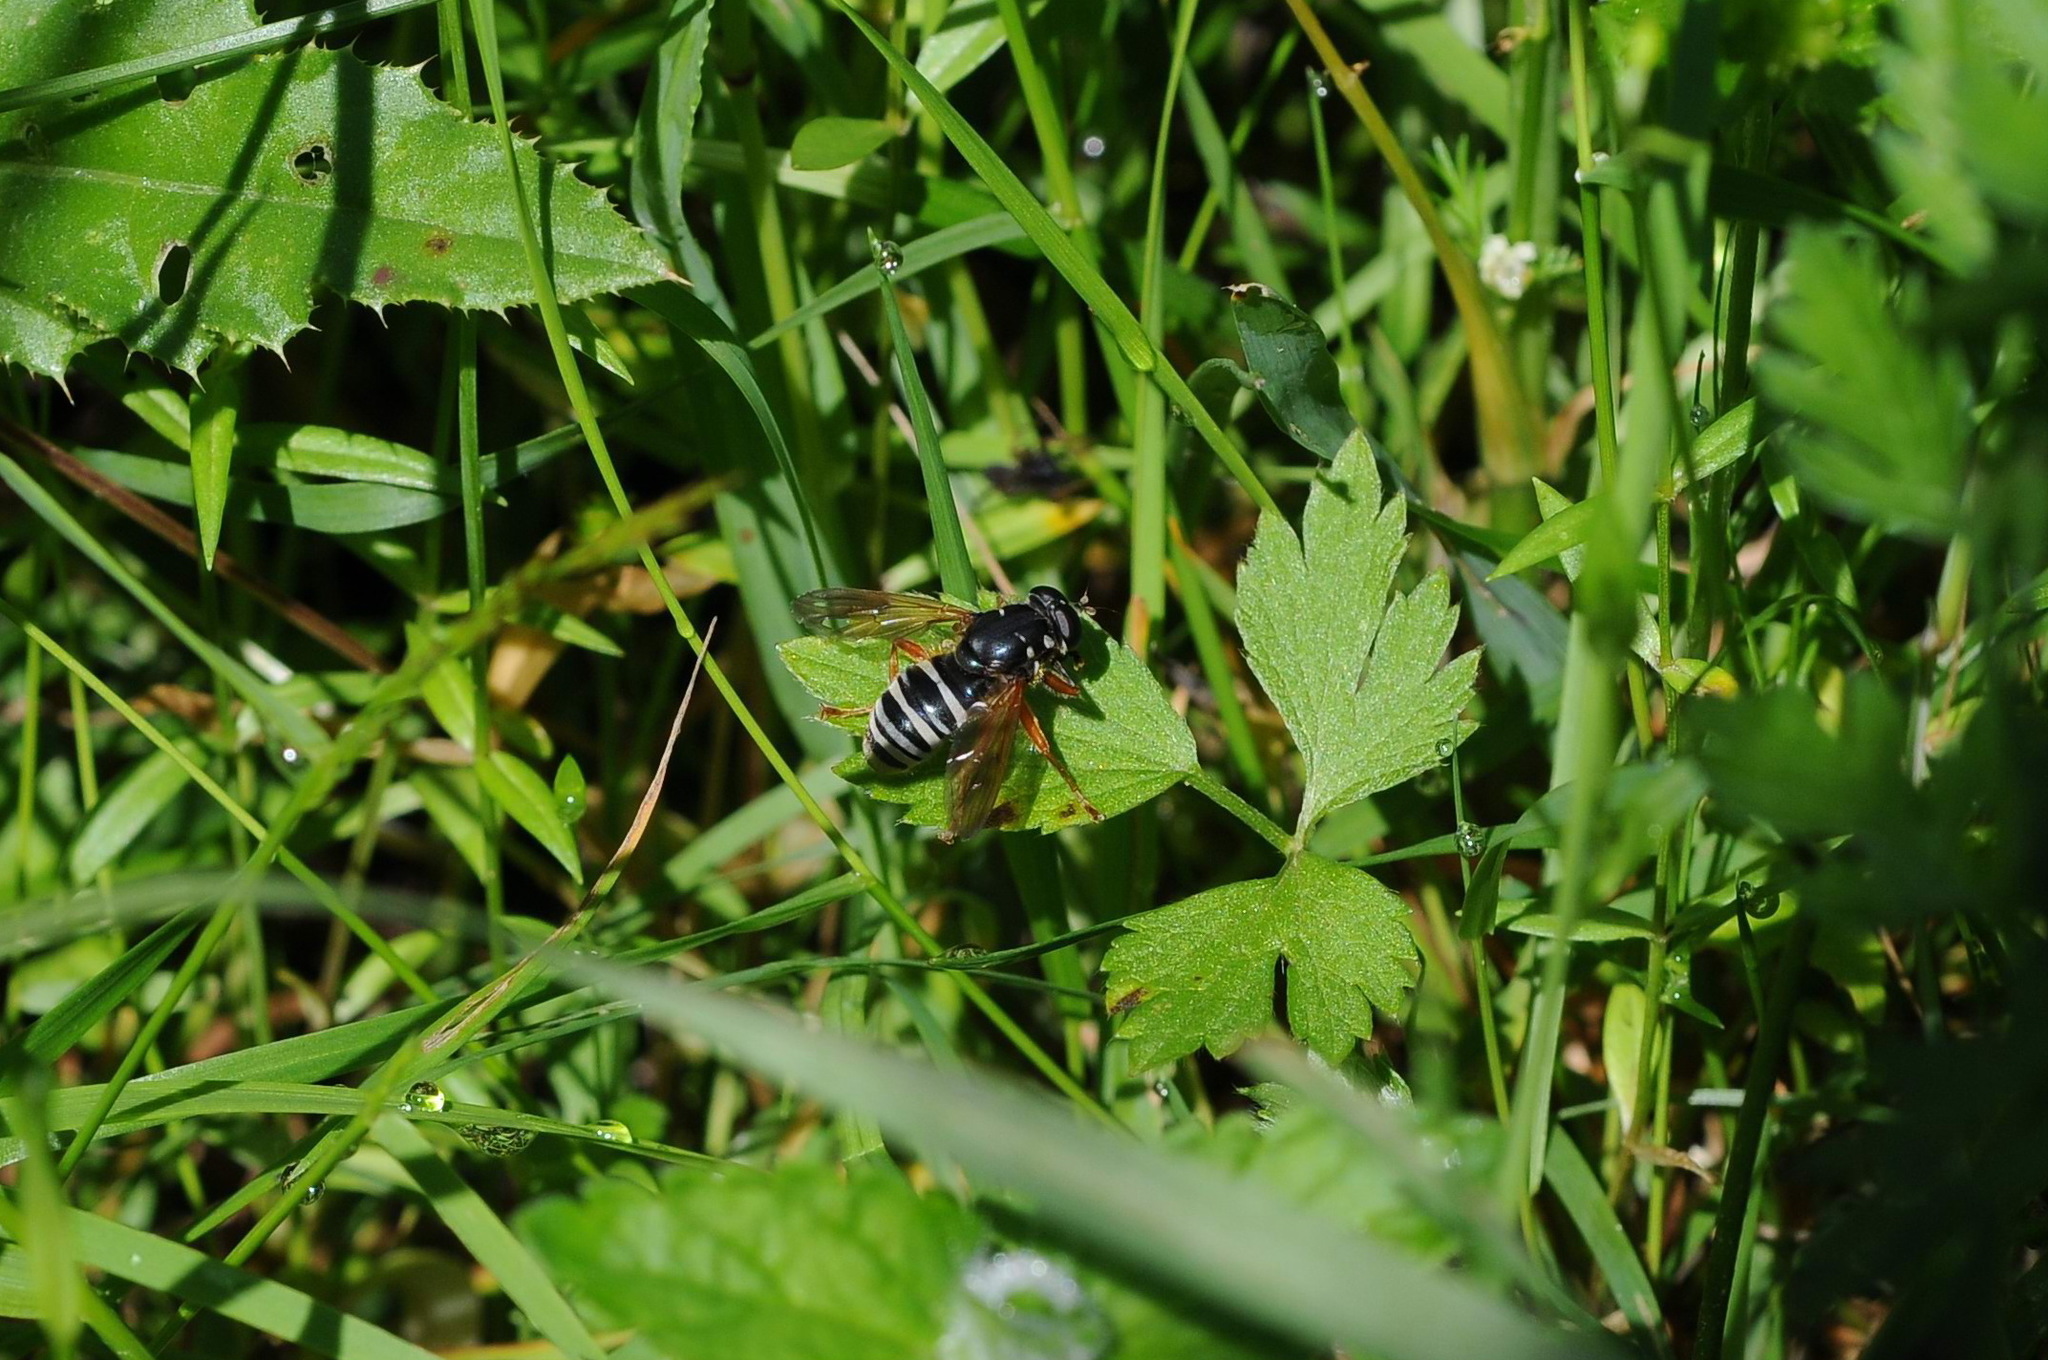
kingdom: Animalia
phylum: Arthropoda
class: Insecta
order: Diptera
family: Syrphidae
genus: Temnostoma
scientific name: Temnostoma apiforme
